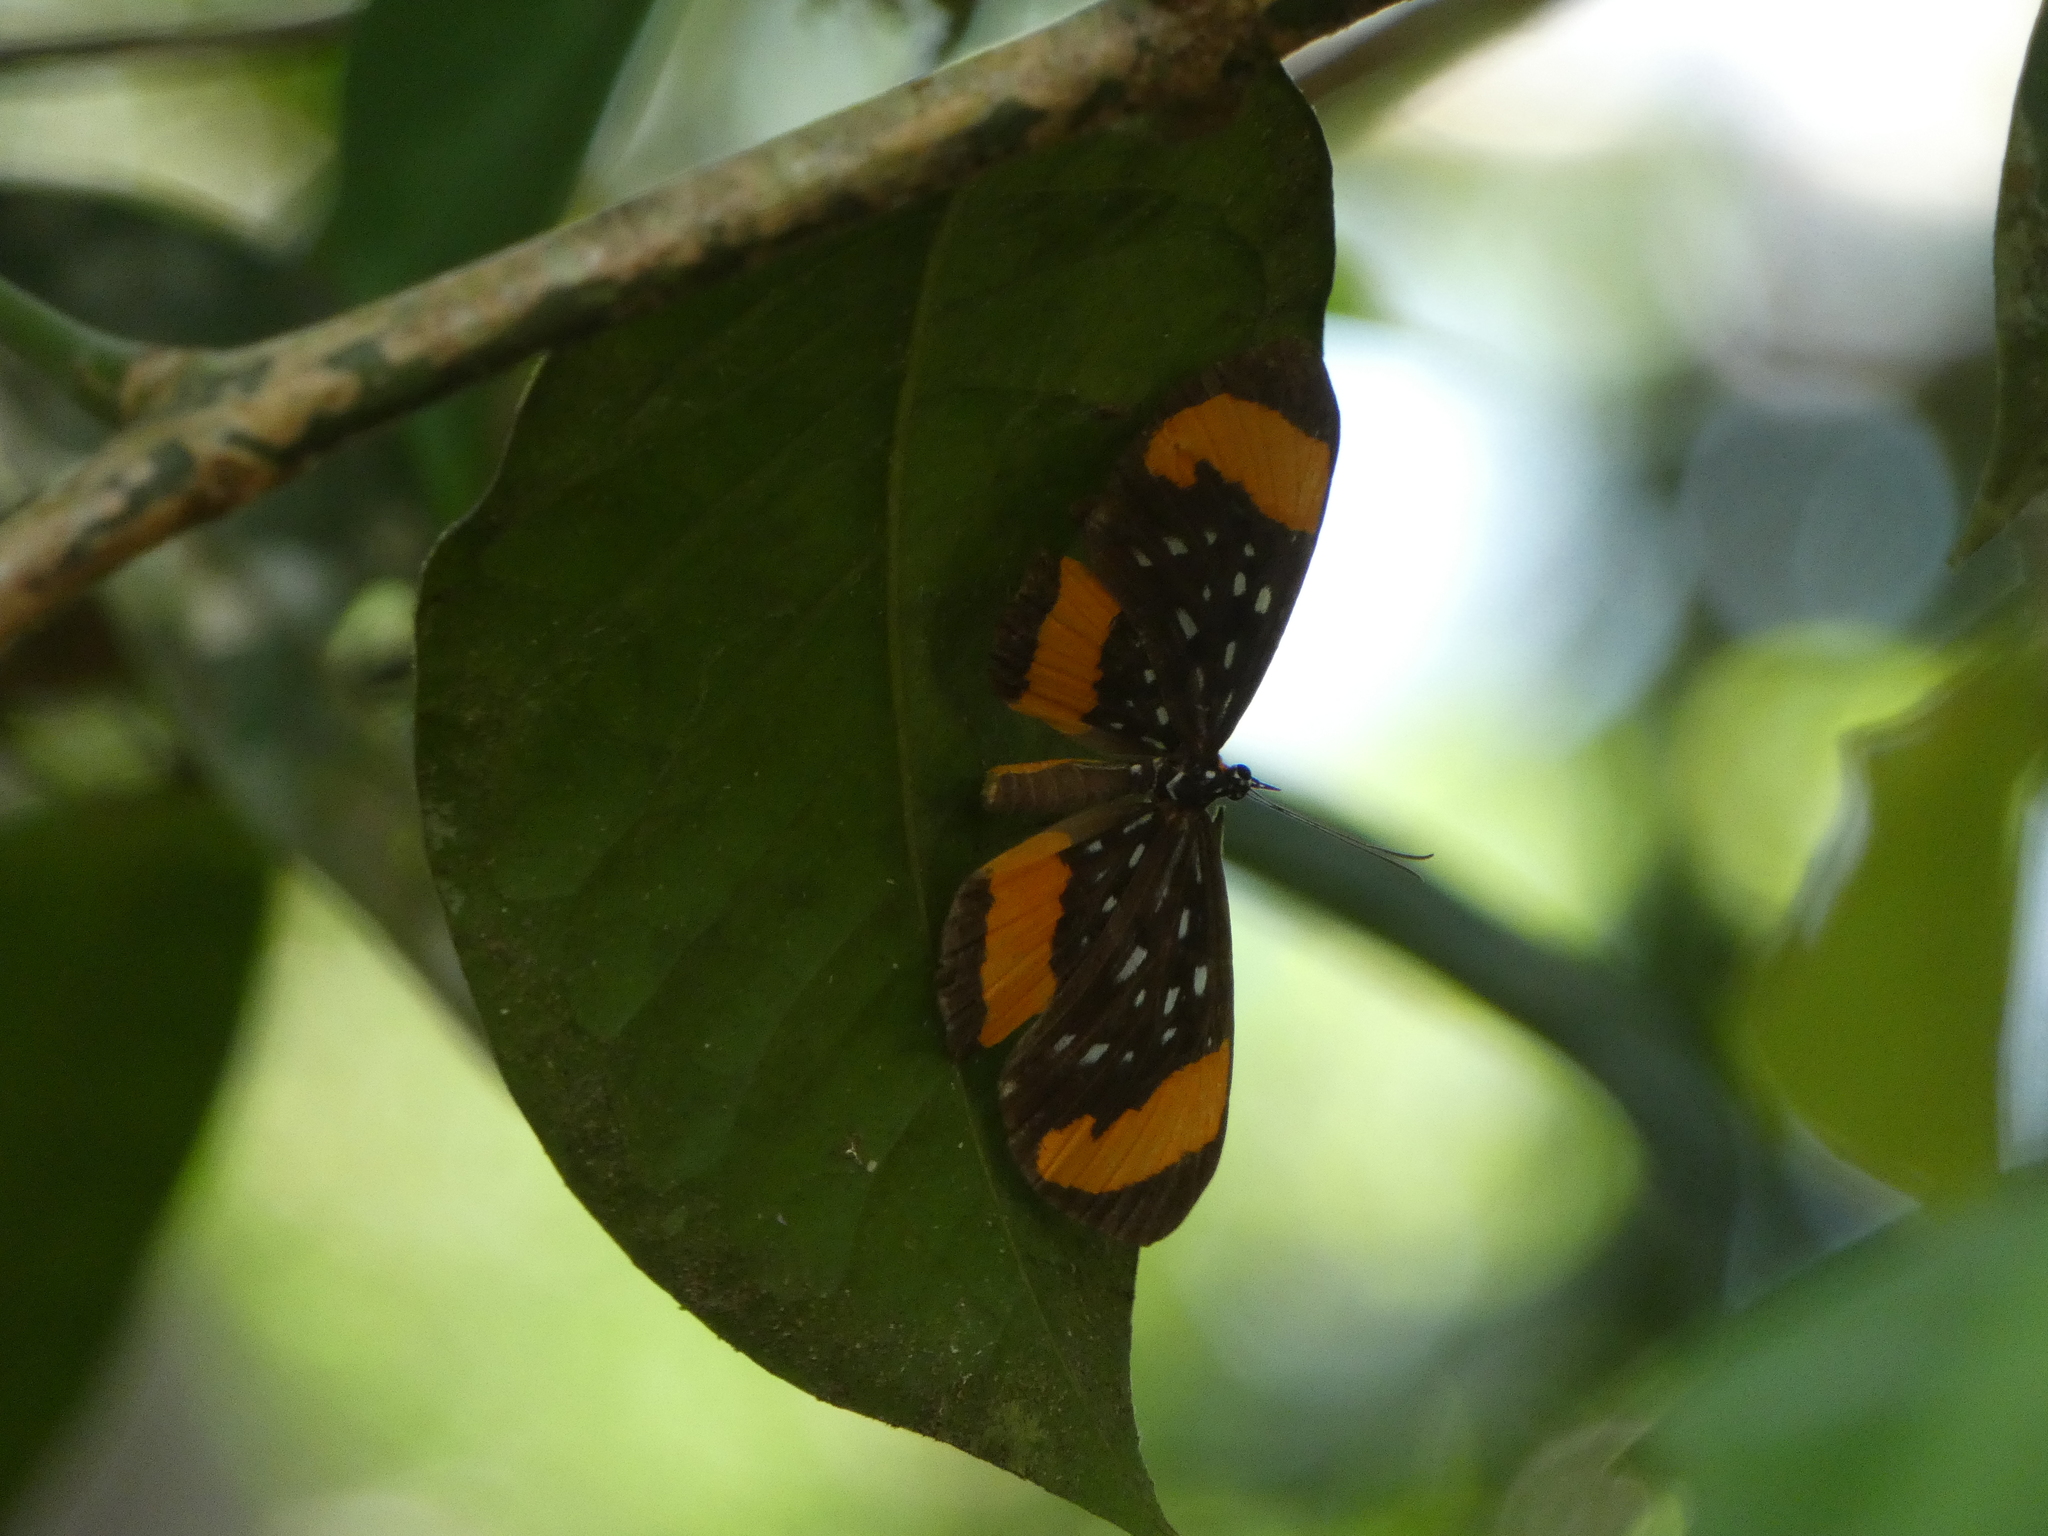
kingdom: Animalia
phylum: Arthropoda
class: Insecta
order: Lepidoptera
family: Riodinidae
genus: Stalachtis
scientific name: Stalachtis euterpe
